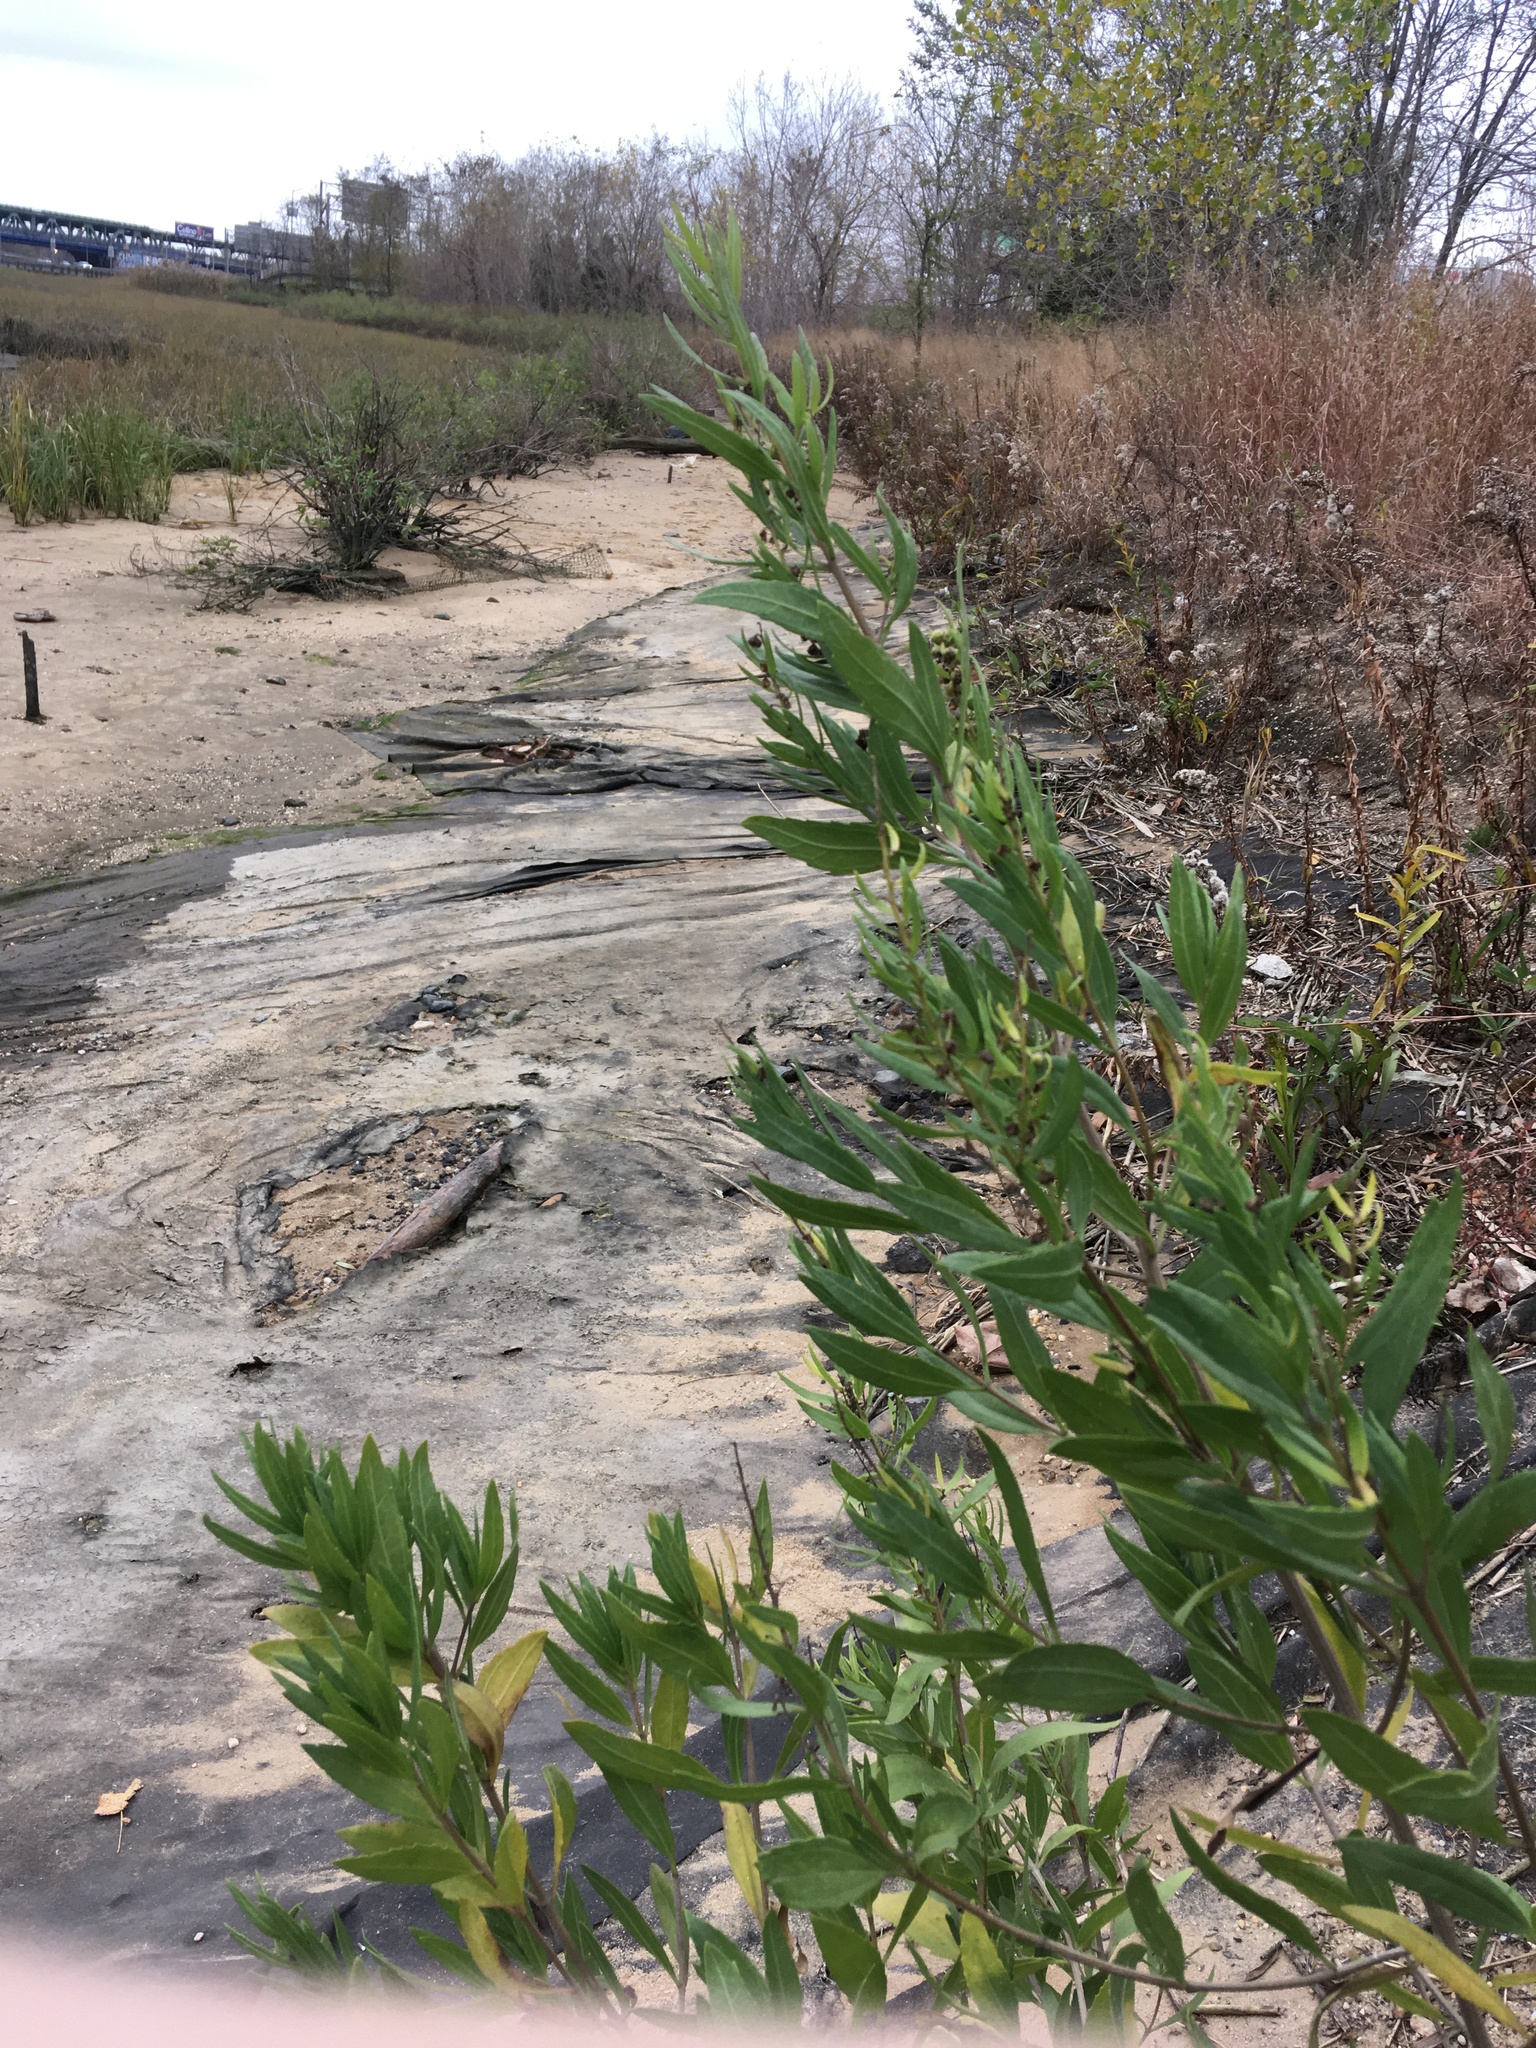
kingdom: Plantae
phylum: Tracheophyta
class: Magnoliopsida
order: Asterales
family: Asteraceae
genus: Iva
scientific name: Iva frutescens
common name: Big-leaved marsh-elder
